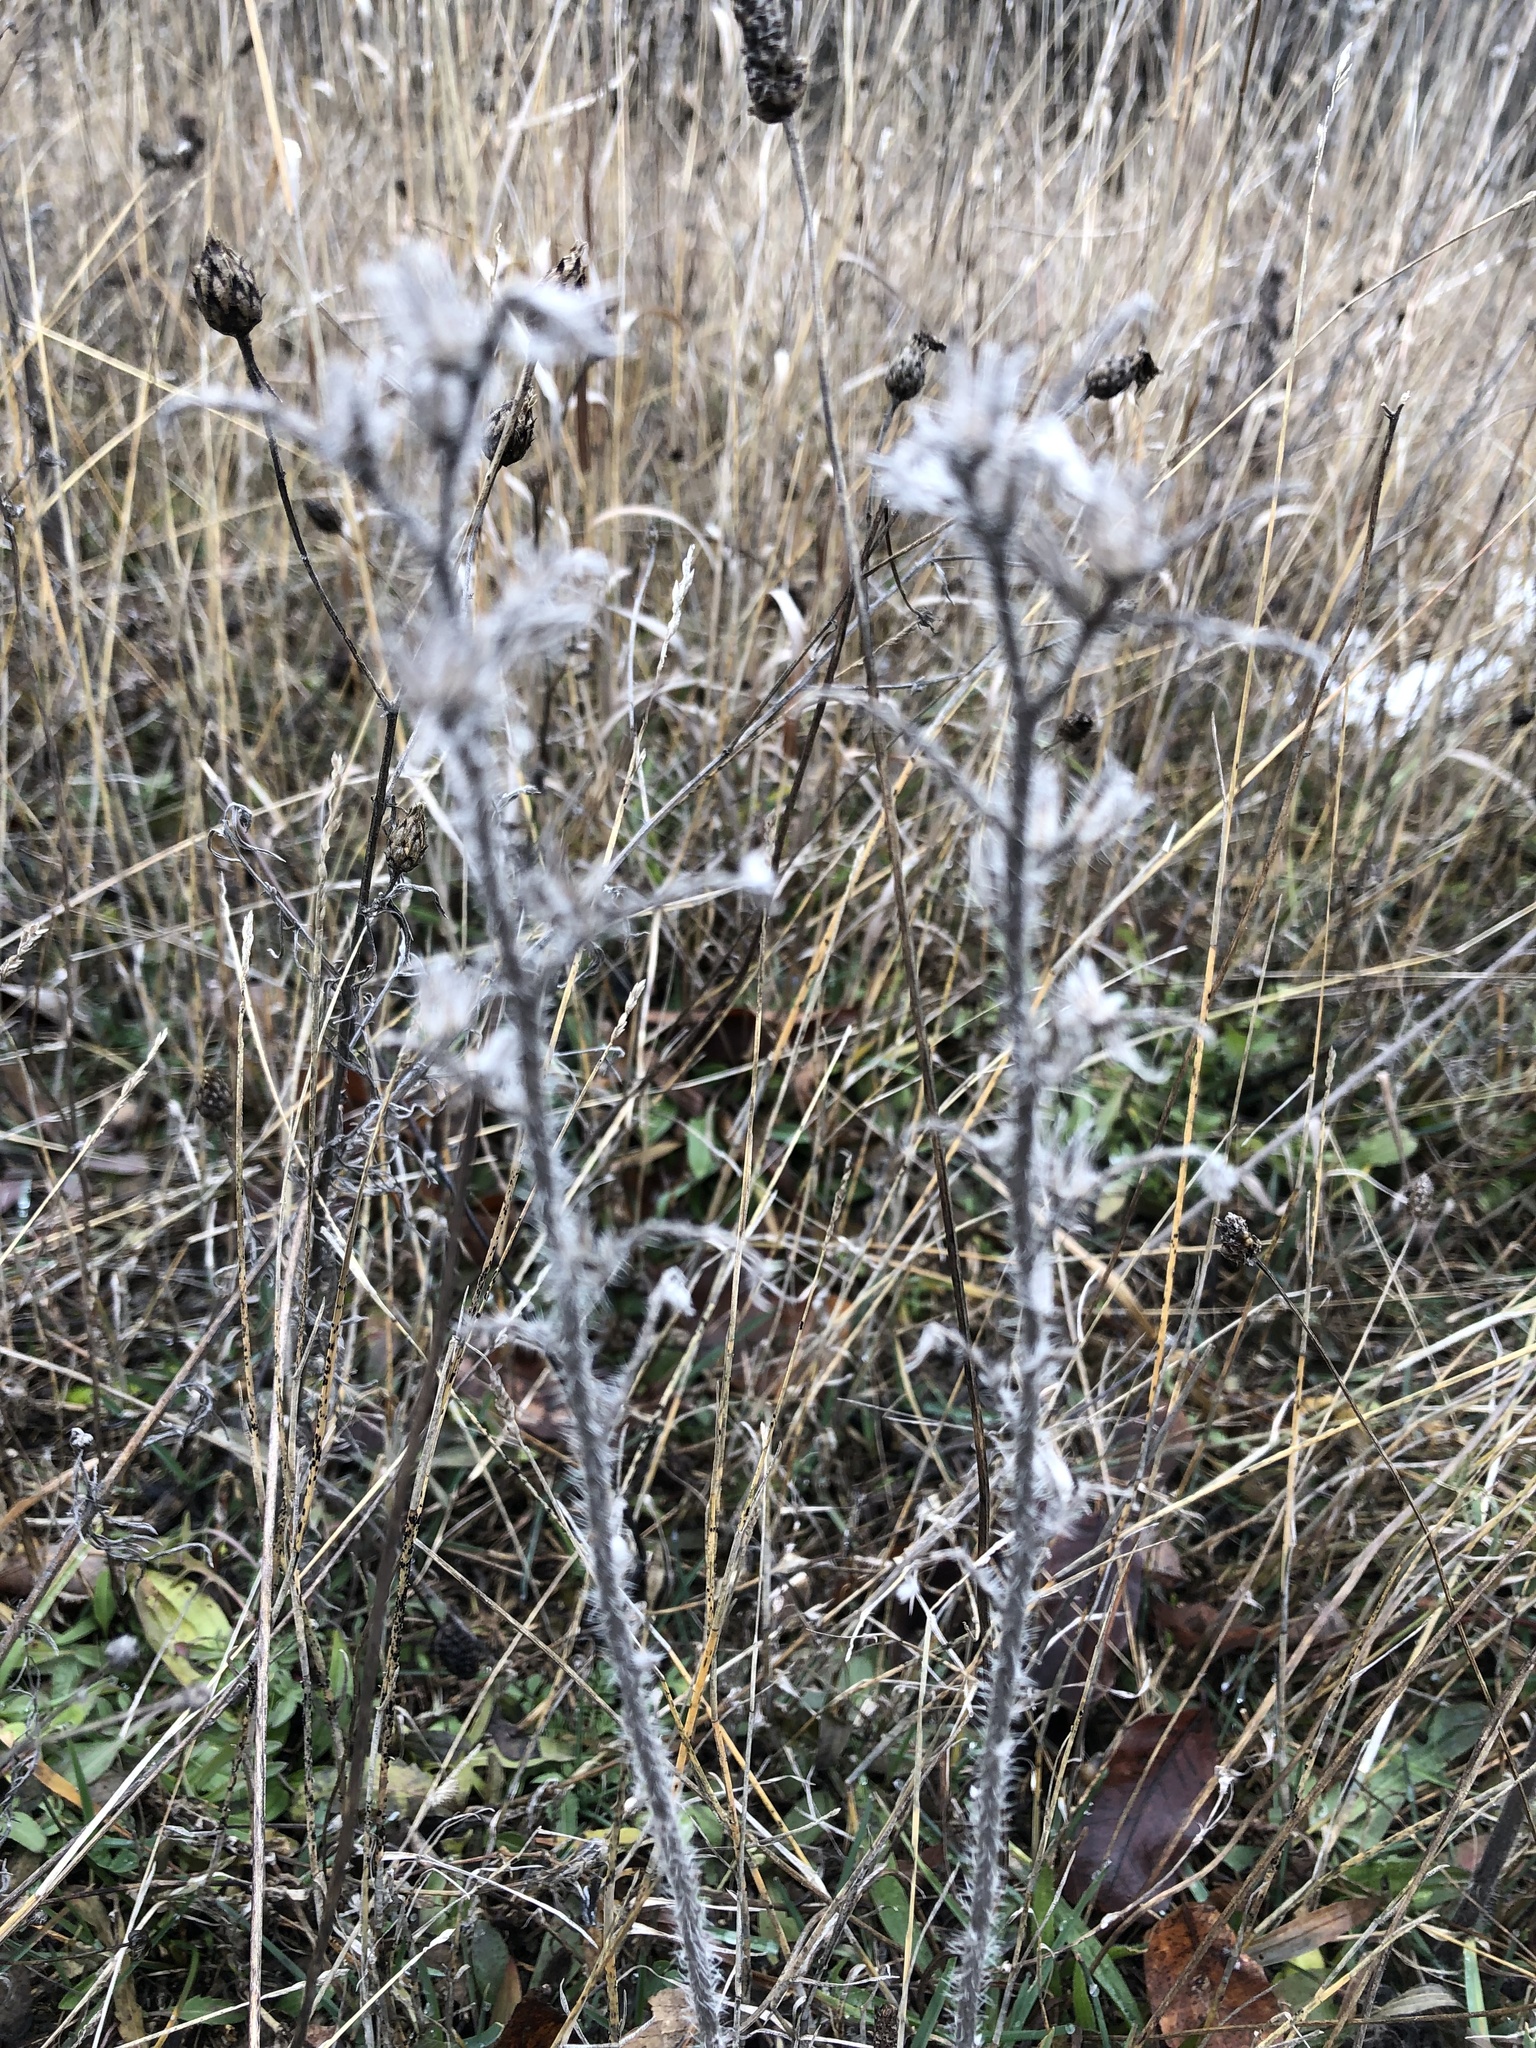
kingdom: Plantae
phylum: Tracheophyta
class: Magnoliopsida
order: Boraginales
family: Boraginaceae
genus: Echium
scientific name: Echium vulgare
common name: Common viper's bugloss
